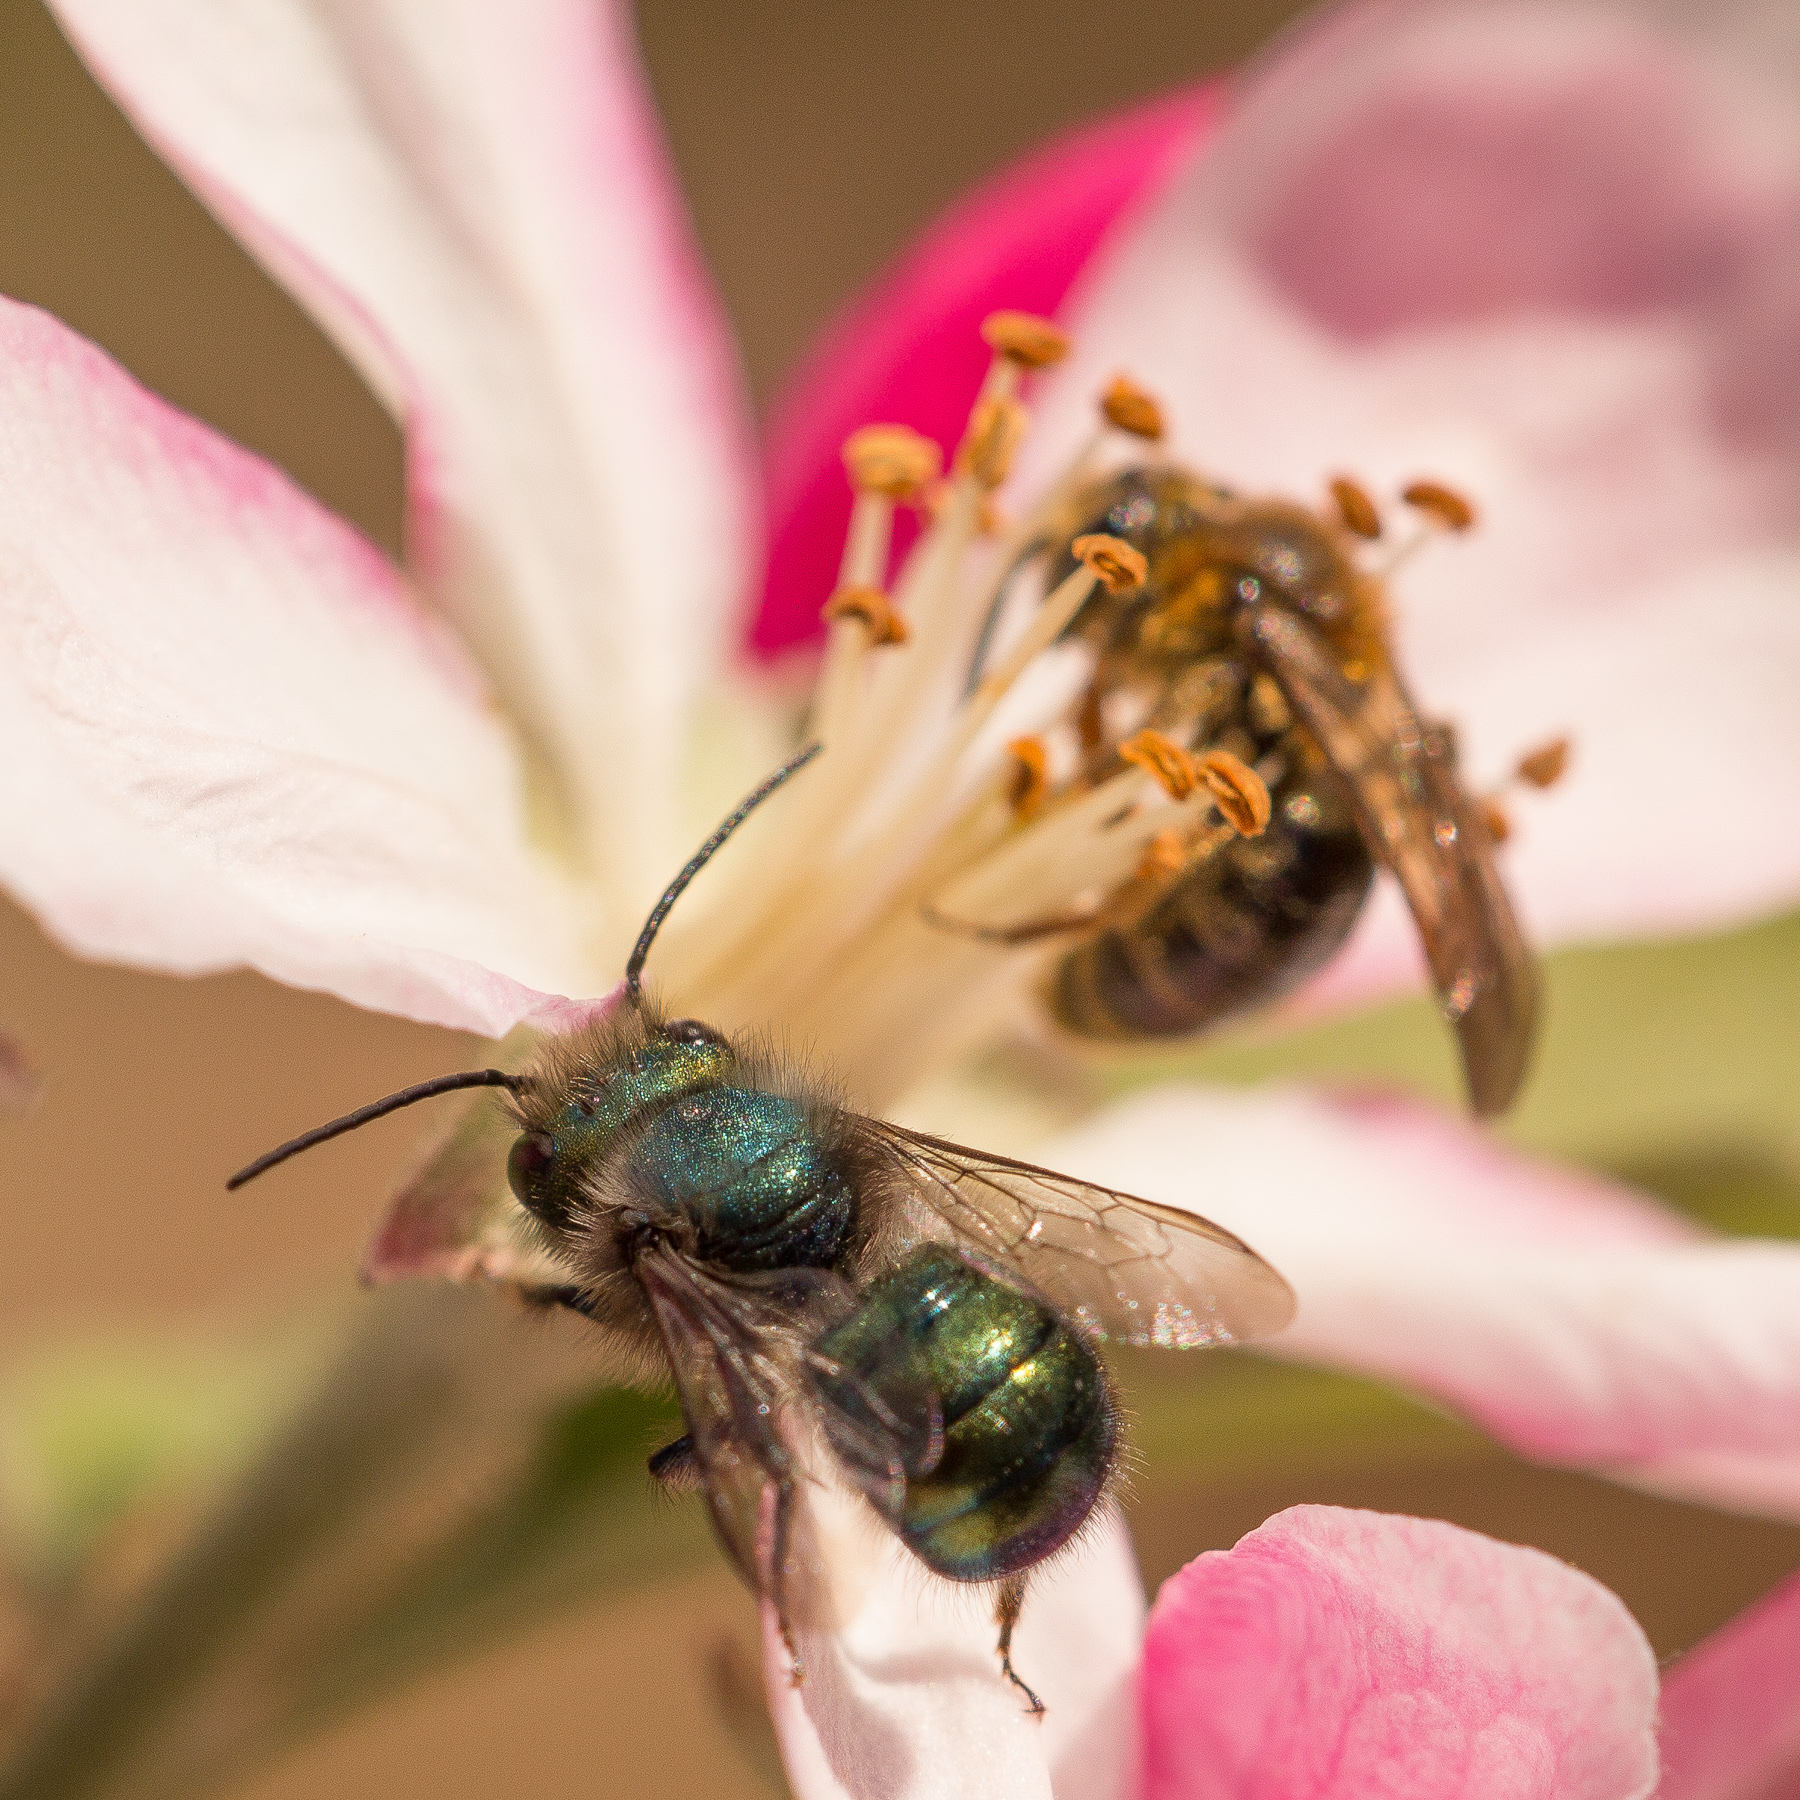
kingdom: Animalia
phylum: Arthropoda
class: Insecta
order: Hymenoptera
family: Megachilidae
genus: Osmia
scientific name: Osmia ribifloris
